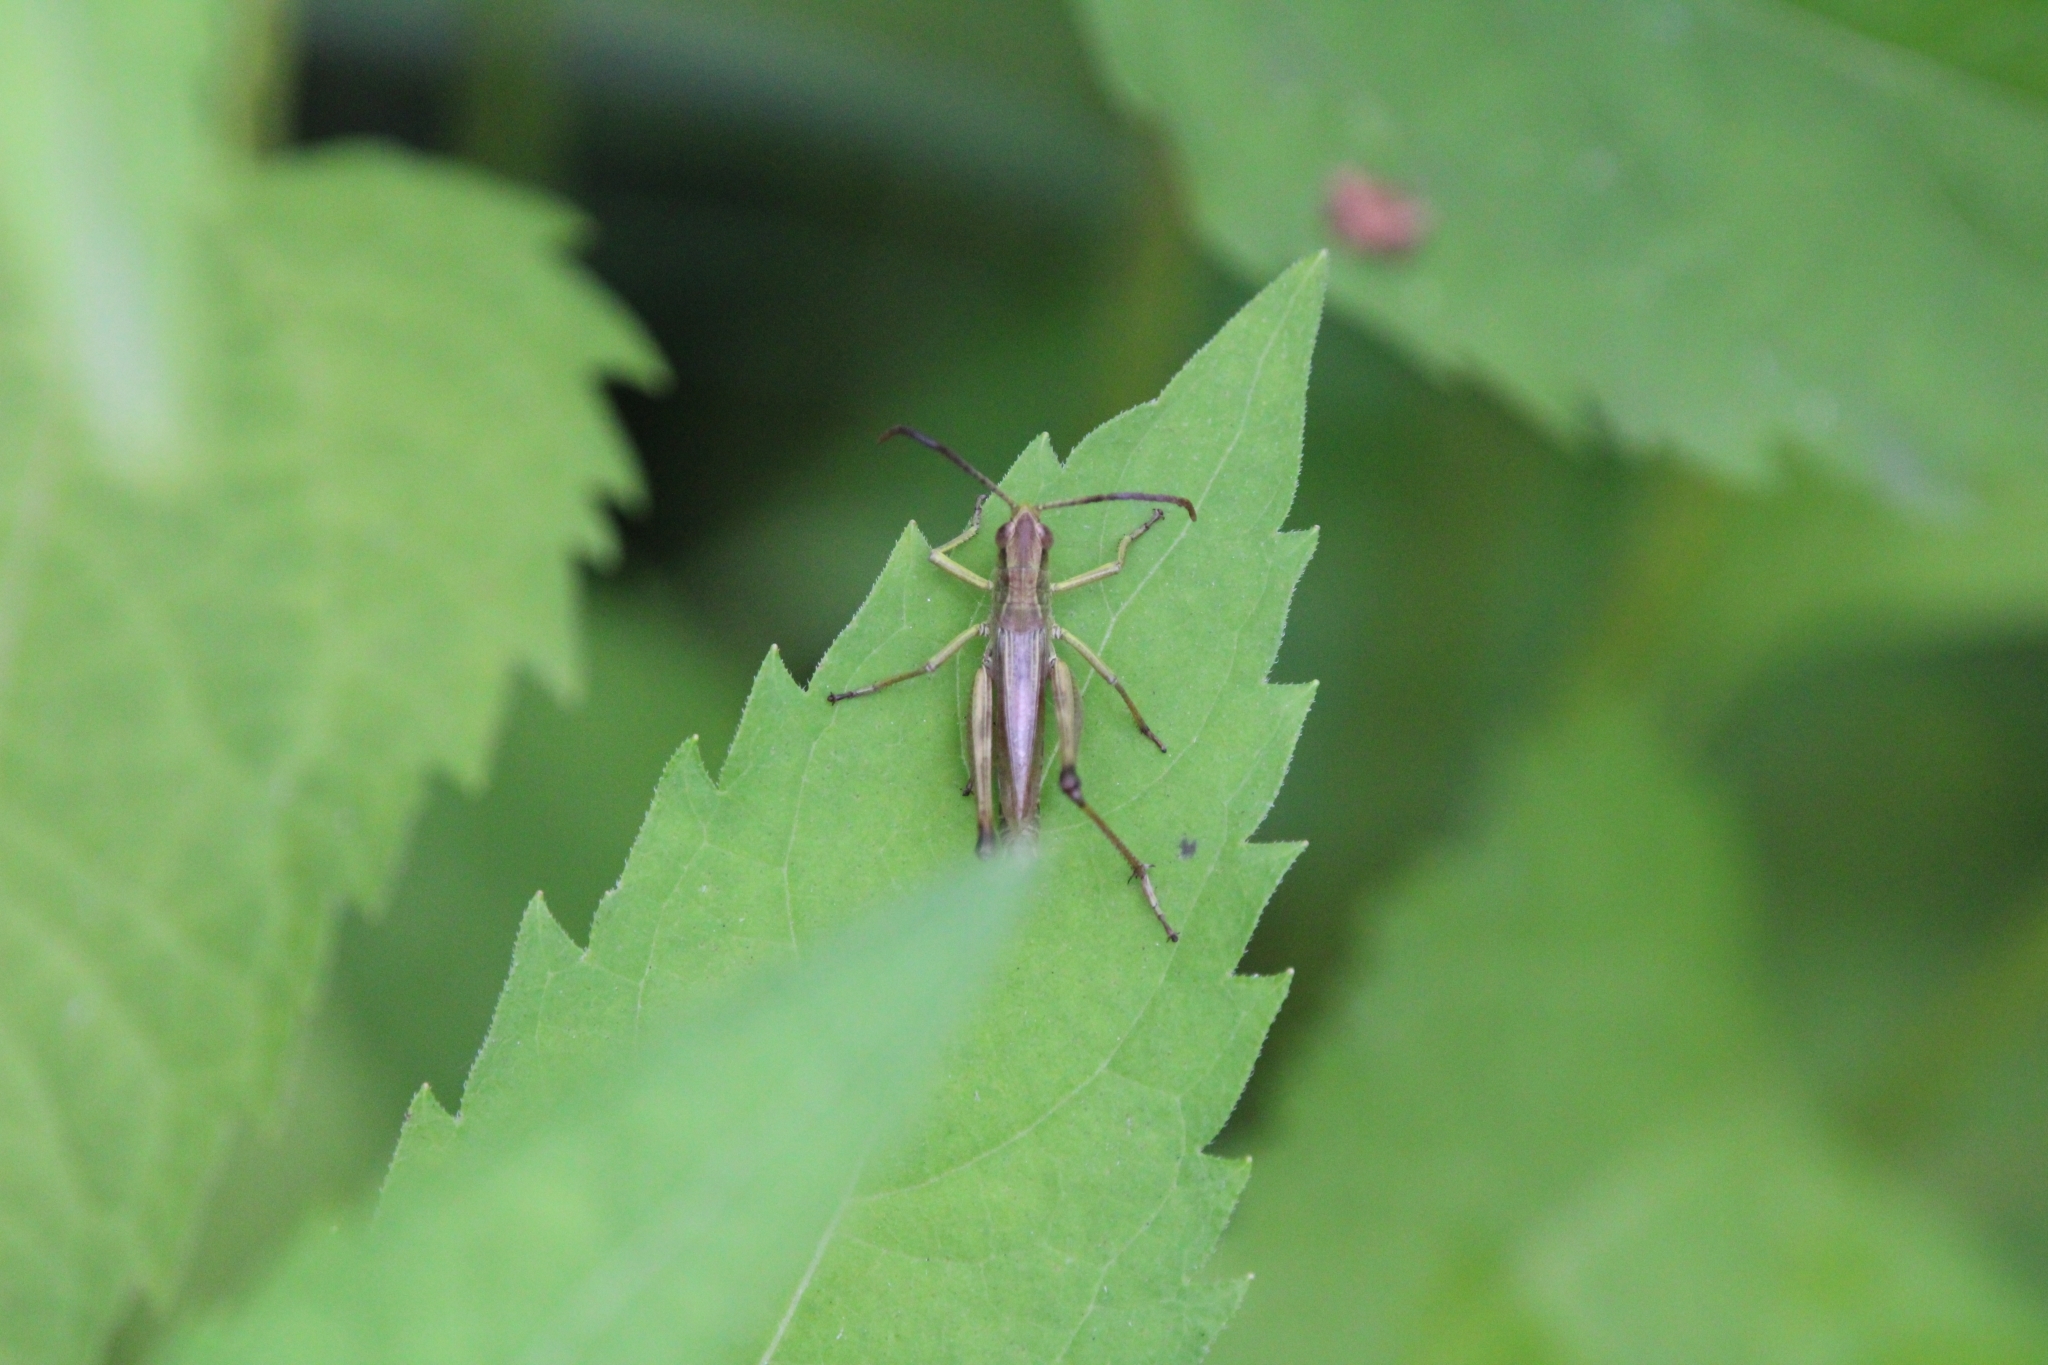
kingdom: Animalia
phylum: Arthropoda
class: Insecta
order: Orthoptera
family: Acrididae
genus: Pseudochorthippus
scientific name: Pseudochorthippus parallelus
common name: Meadow grasshopper
